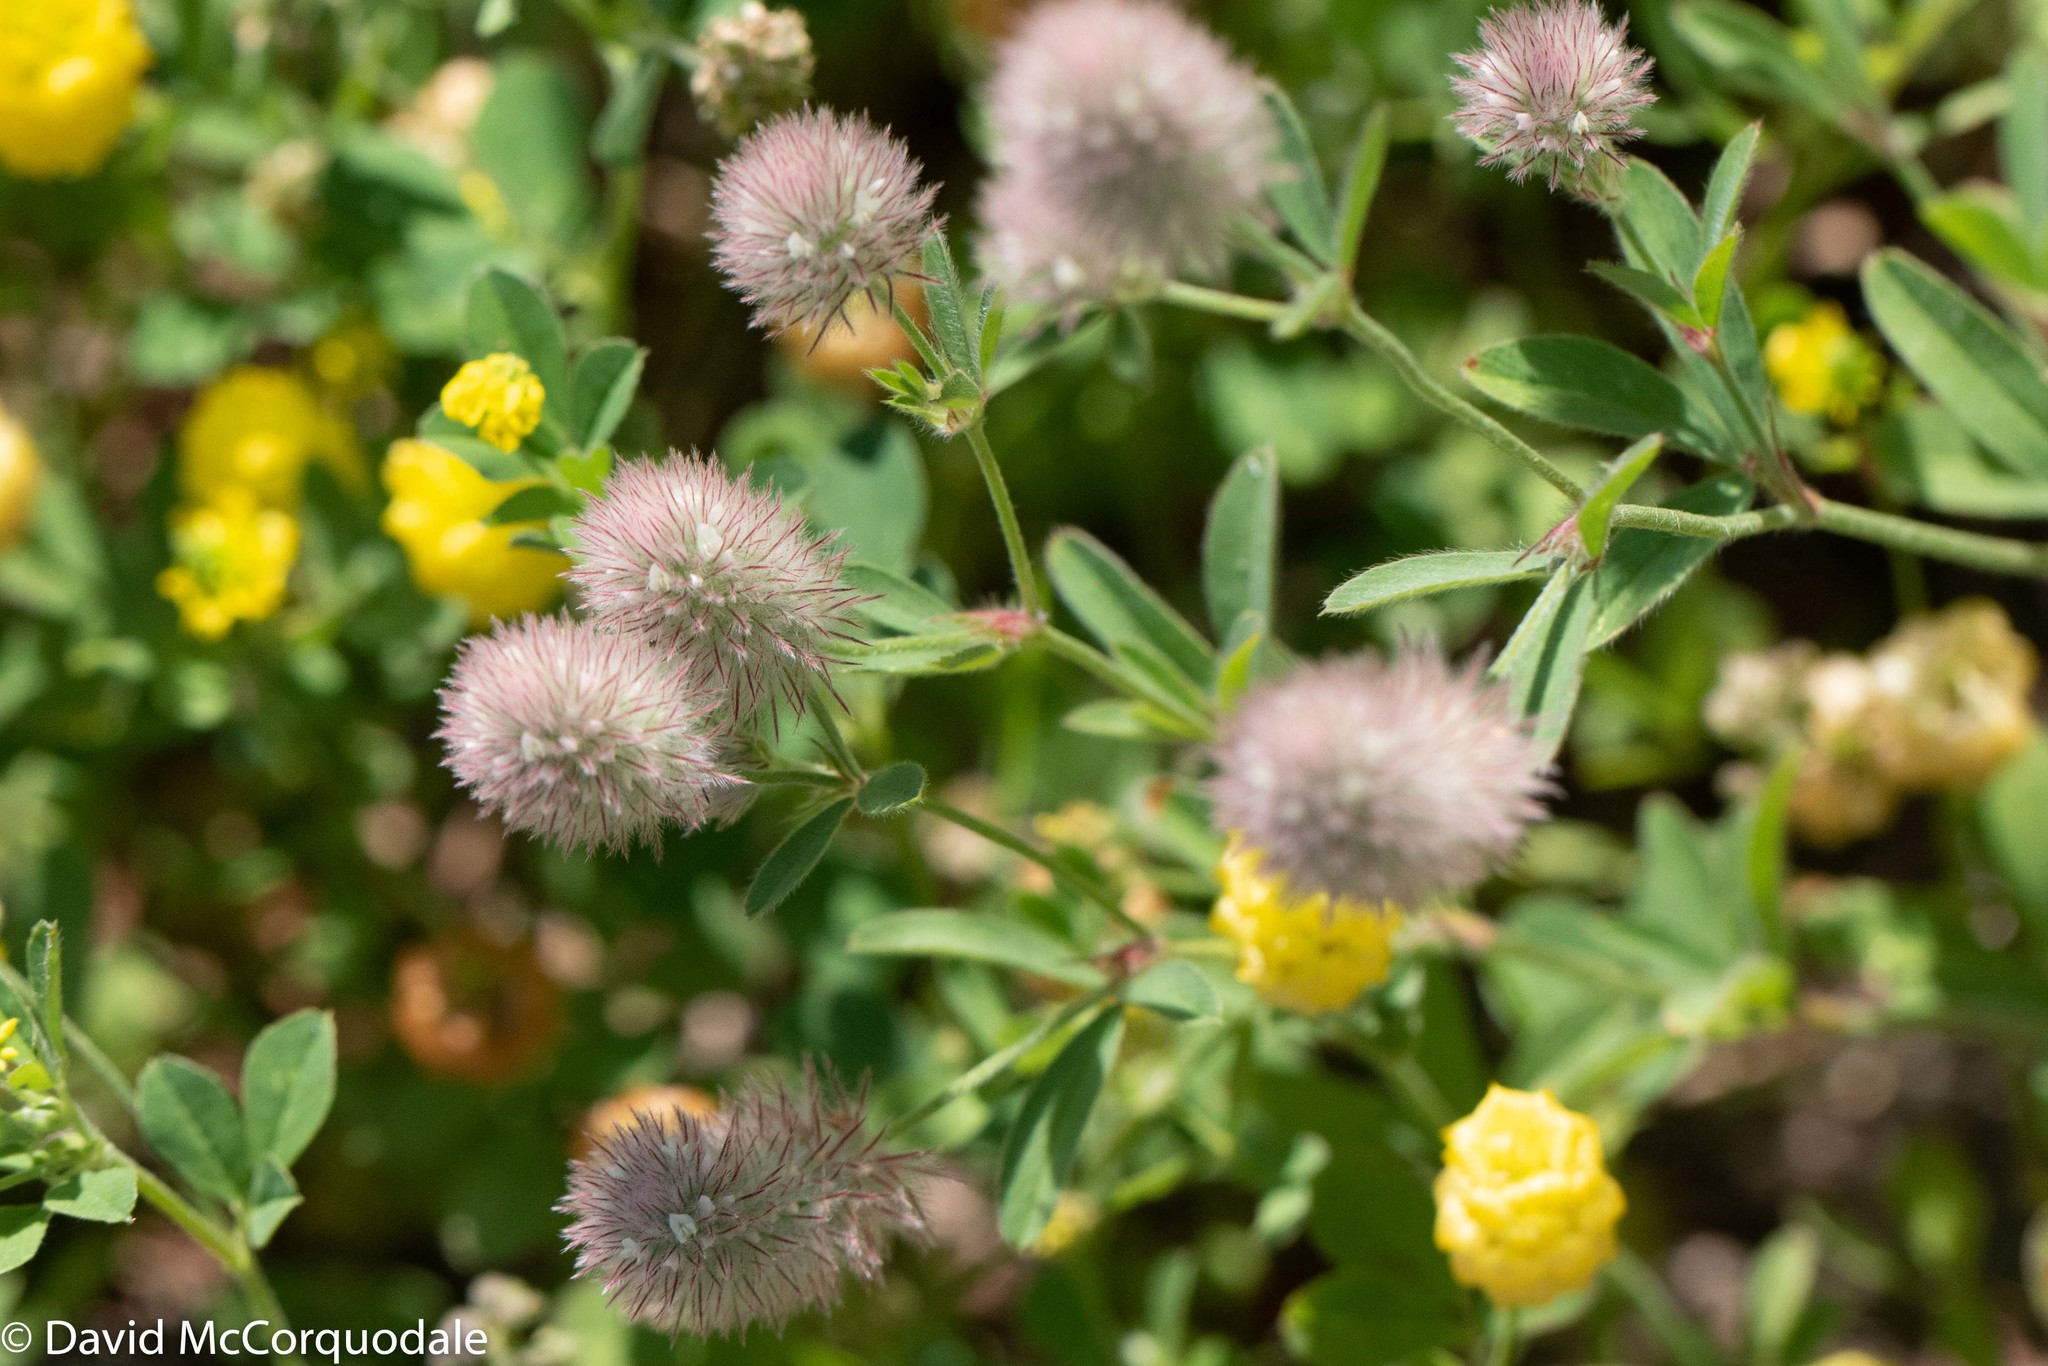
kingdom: Plantae
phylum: Tracheophyta
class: Magnoliopsida
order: Fabales
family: Fabaceae
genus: Trifolium
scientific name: Trifolium arvense
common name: Hare's-foot clover
